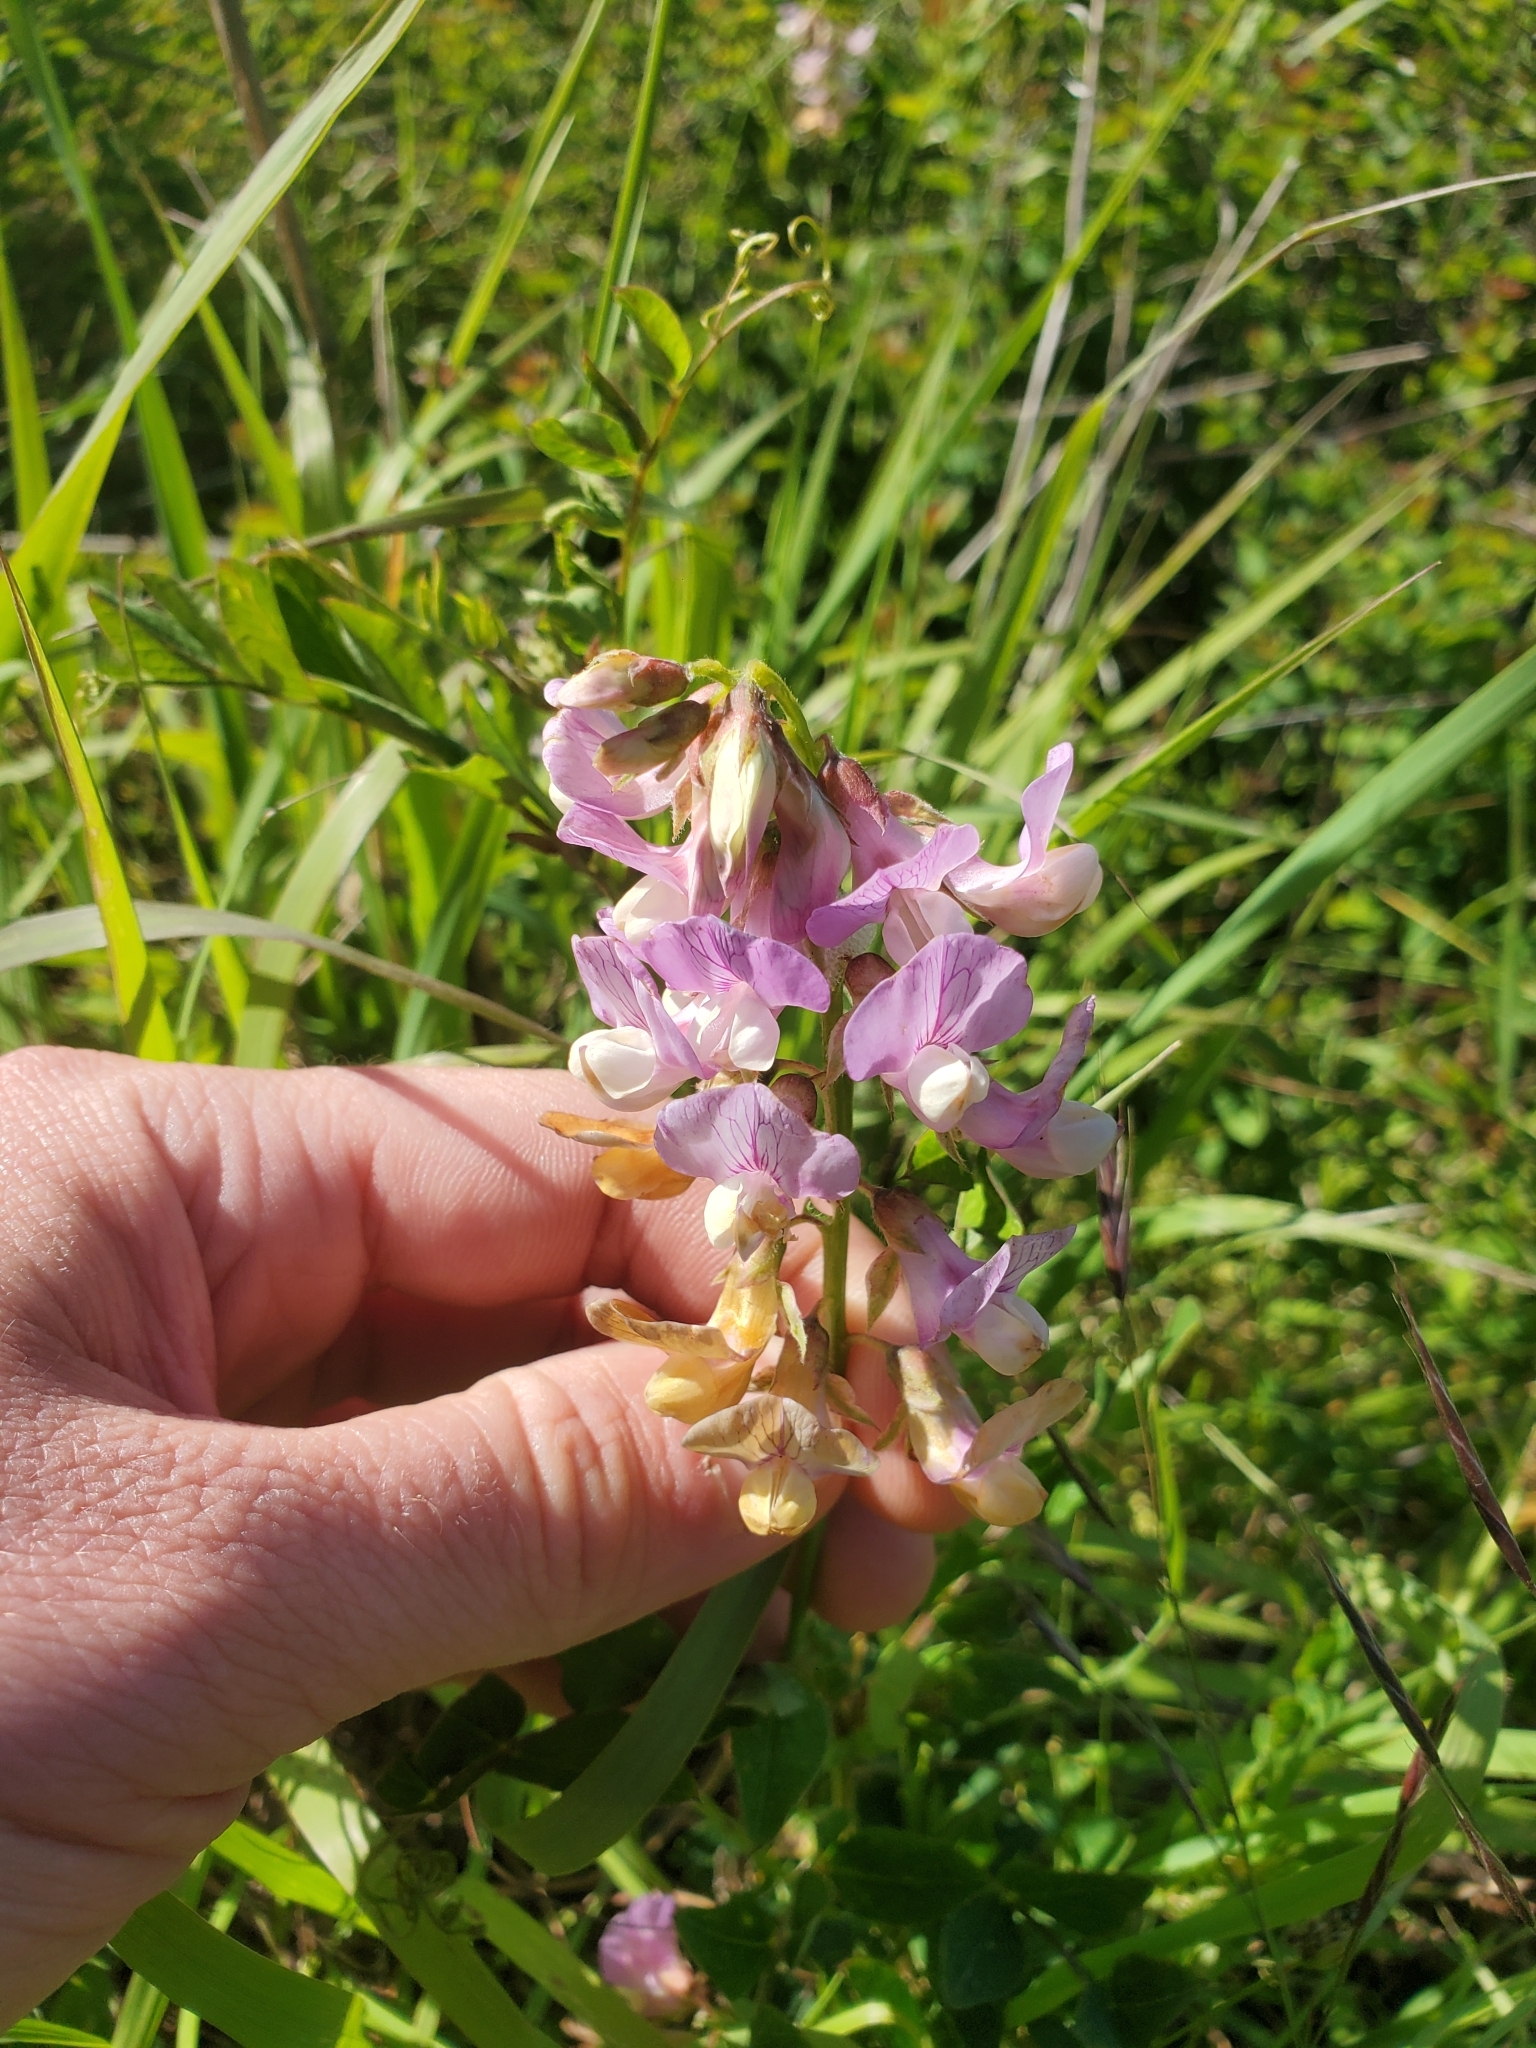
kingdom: Plantae
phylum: Tracheophyta
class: Magnoliopsida
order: Fabales
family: Fabaceae
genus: Lathyrus
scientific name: Lathyrus vestitus
